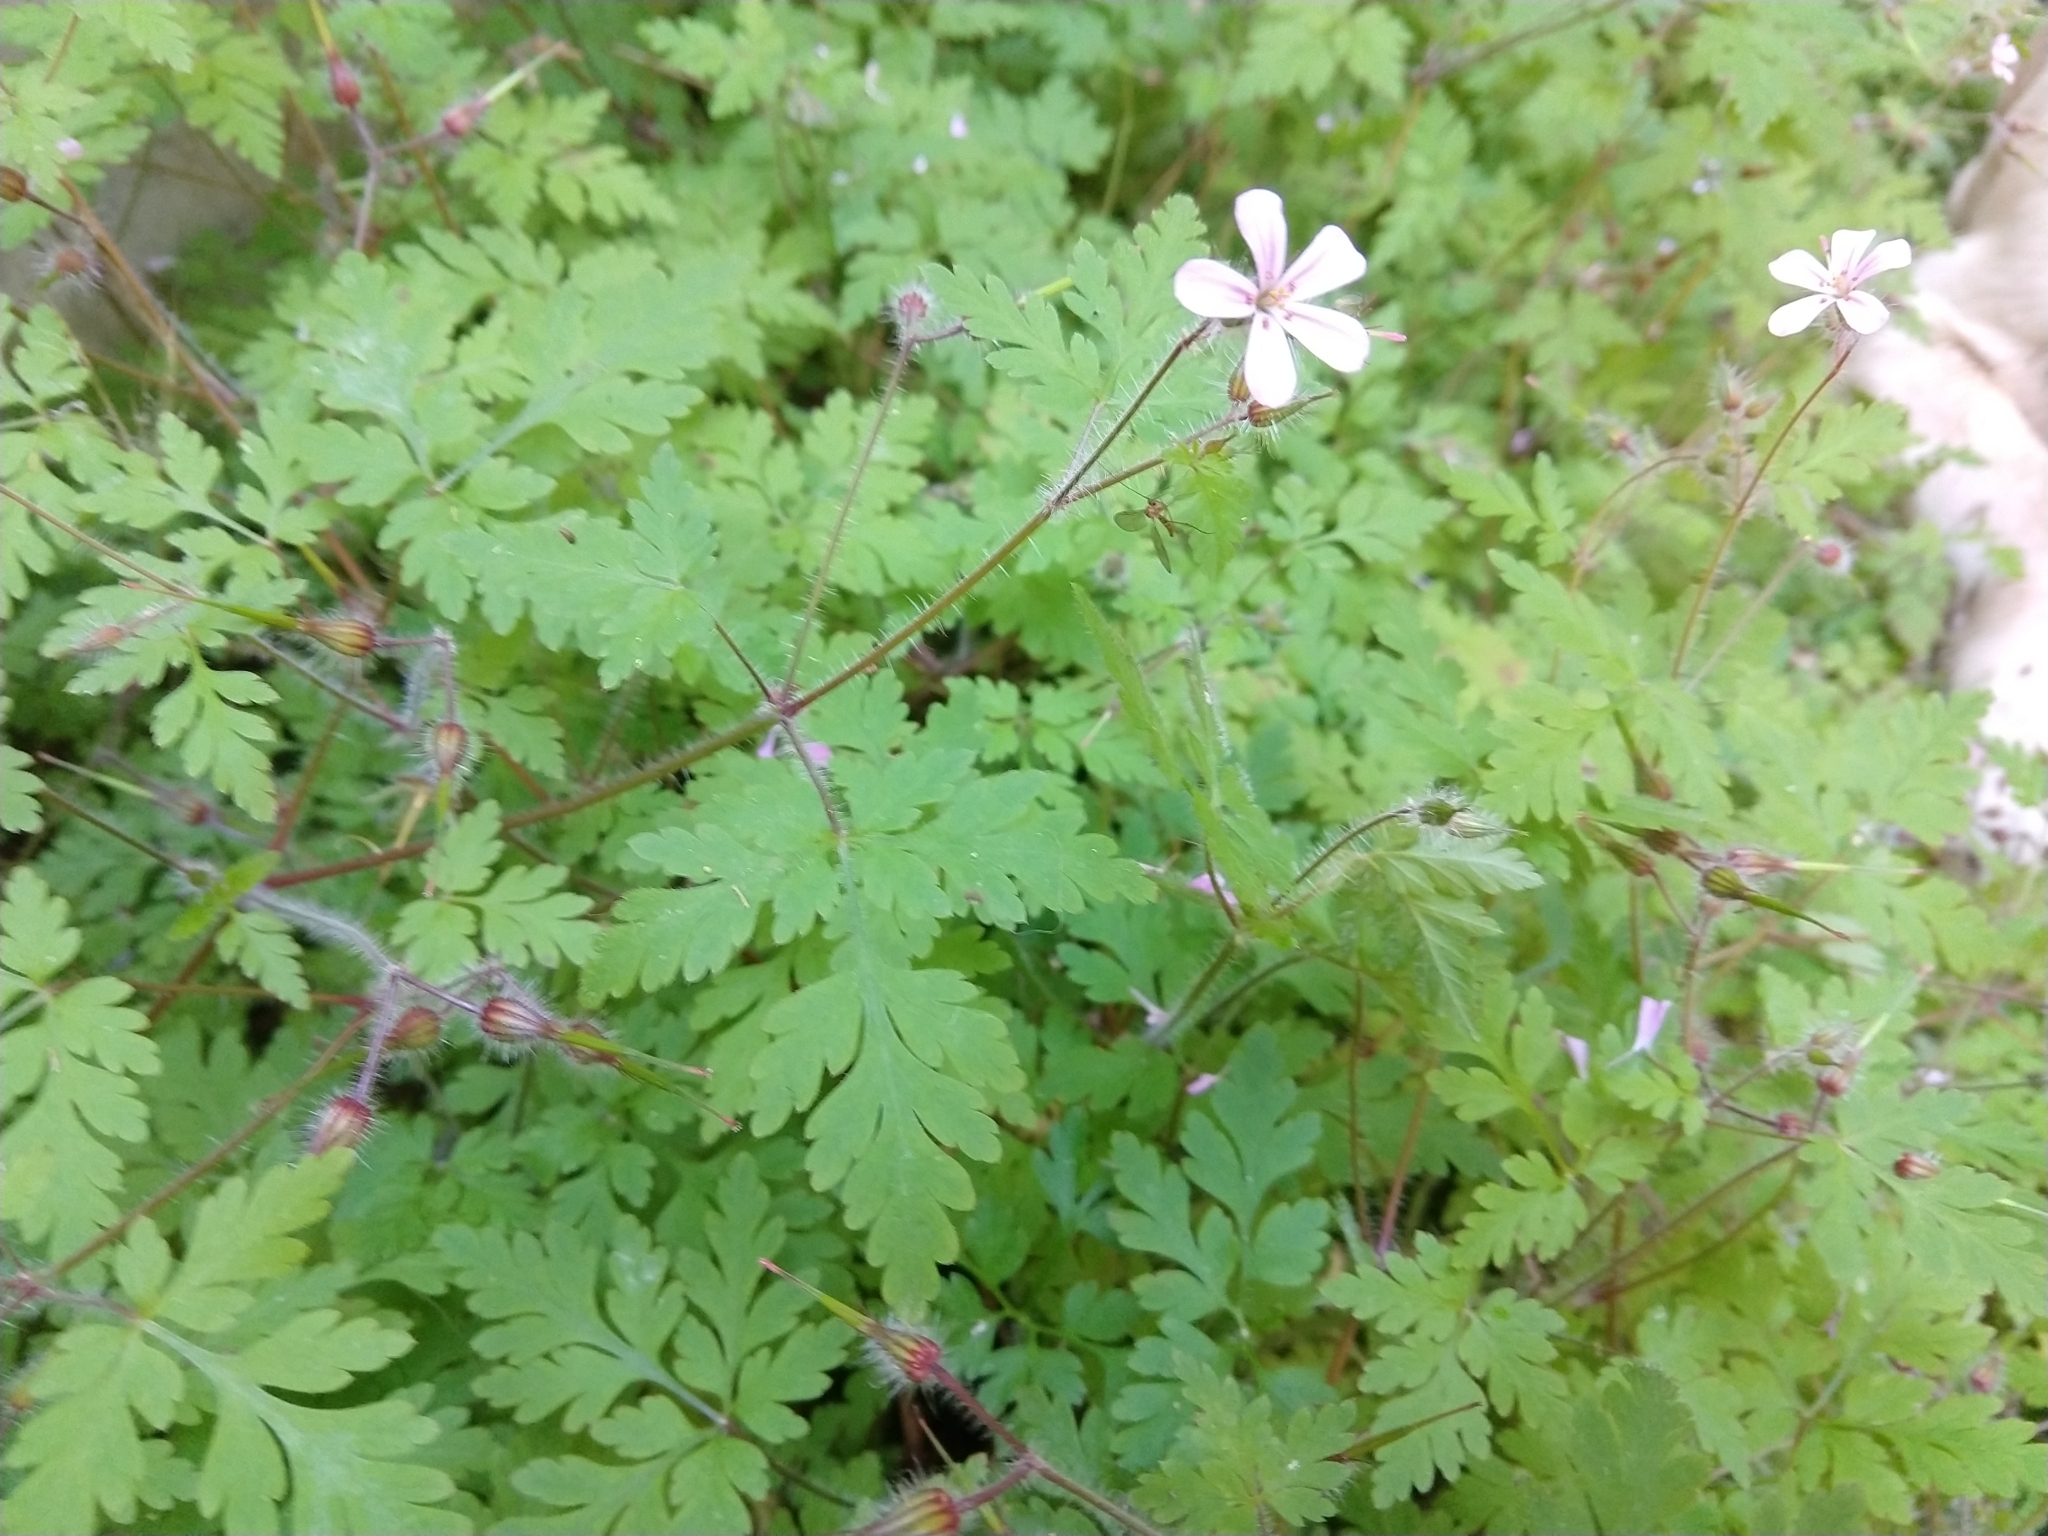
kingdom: Plantae
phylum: Tracheophyta
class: Magnoliopsida
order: Geraniales
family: Geraniaceae
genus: Geranium
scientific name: Geranium robertianum
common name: Herb-robert
